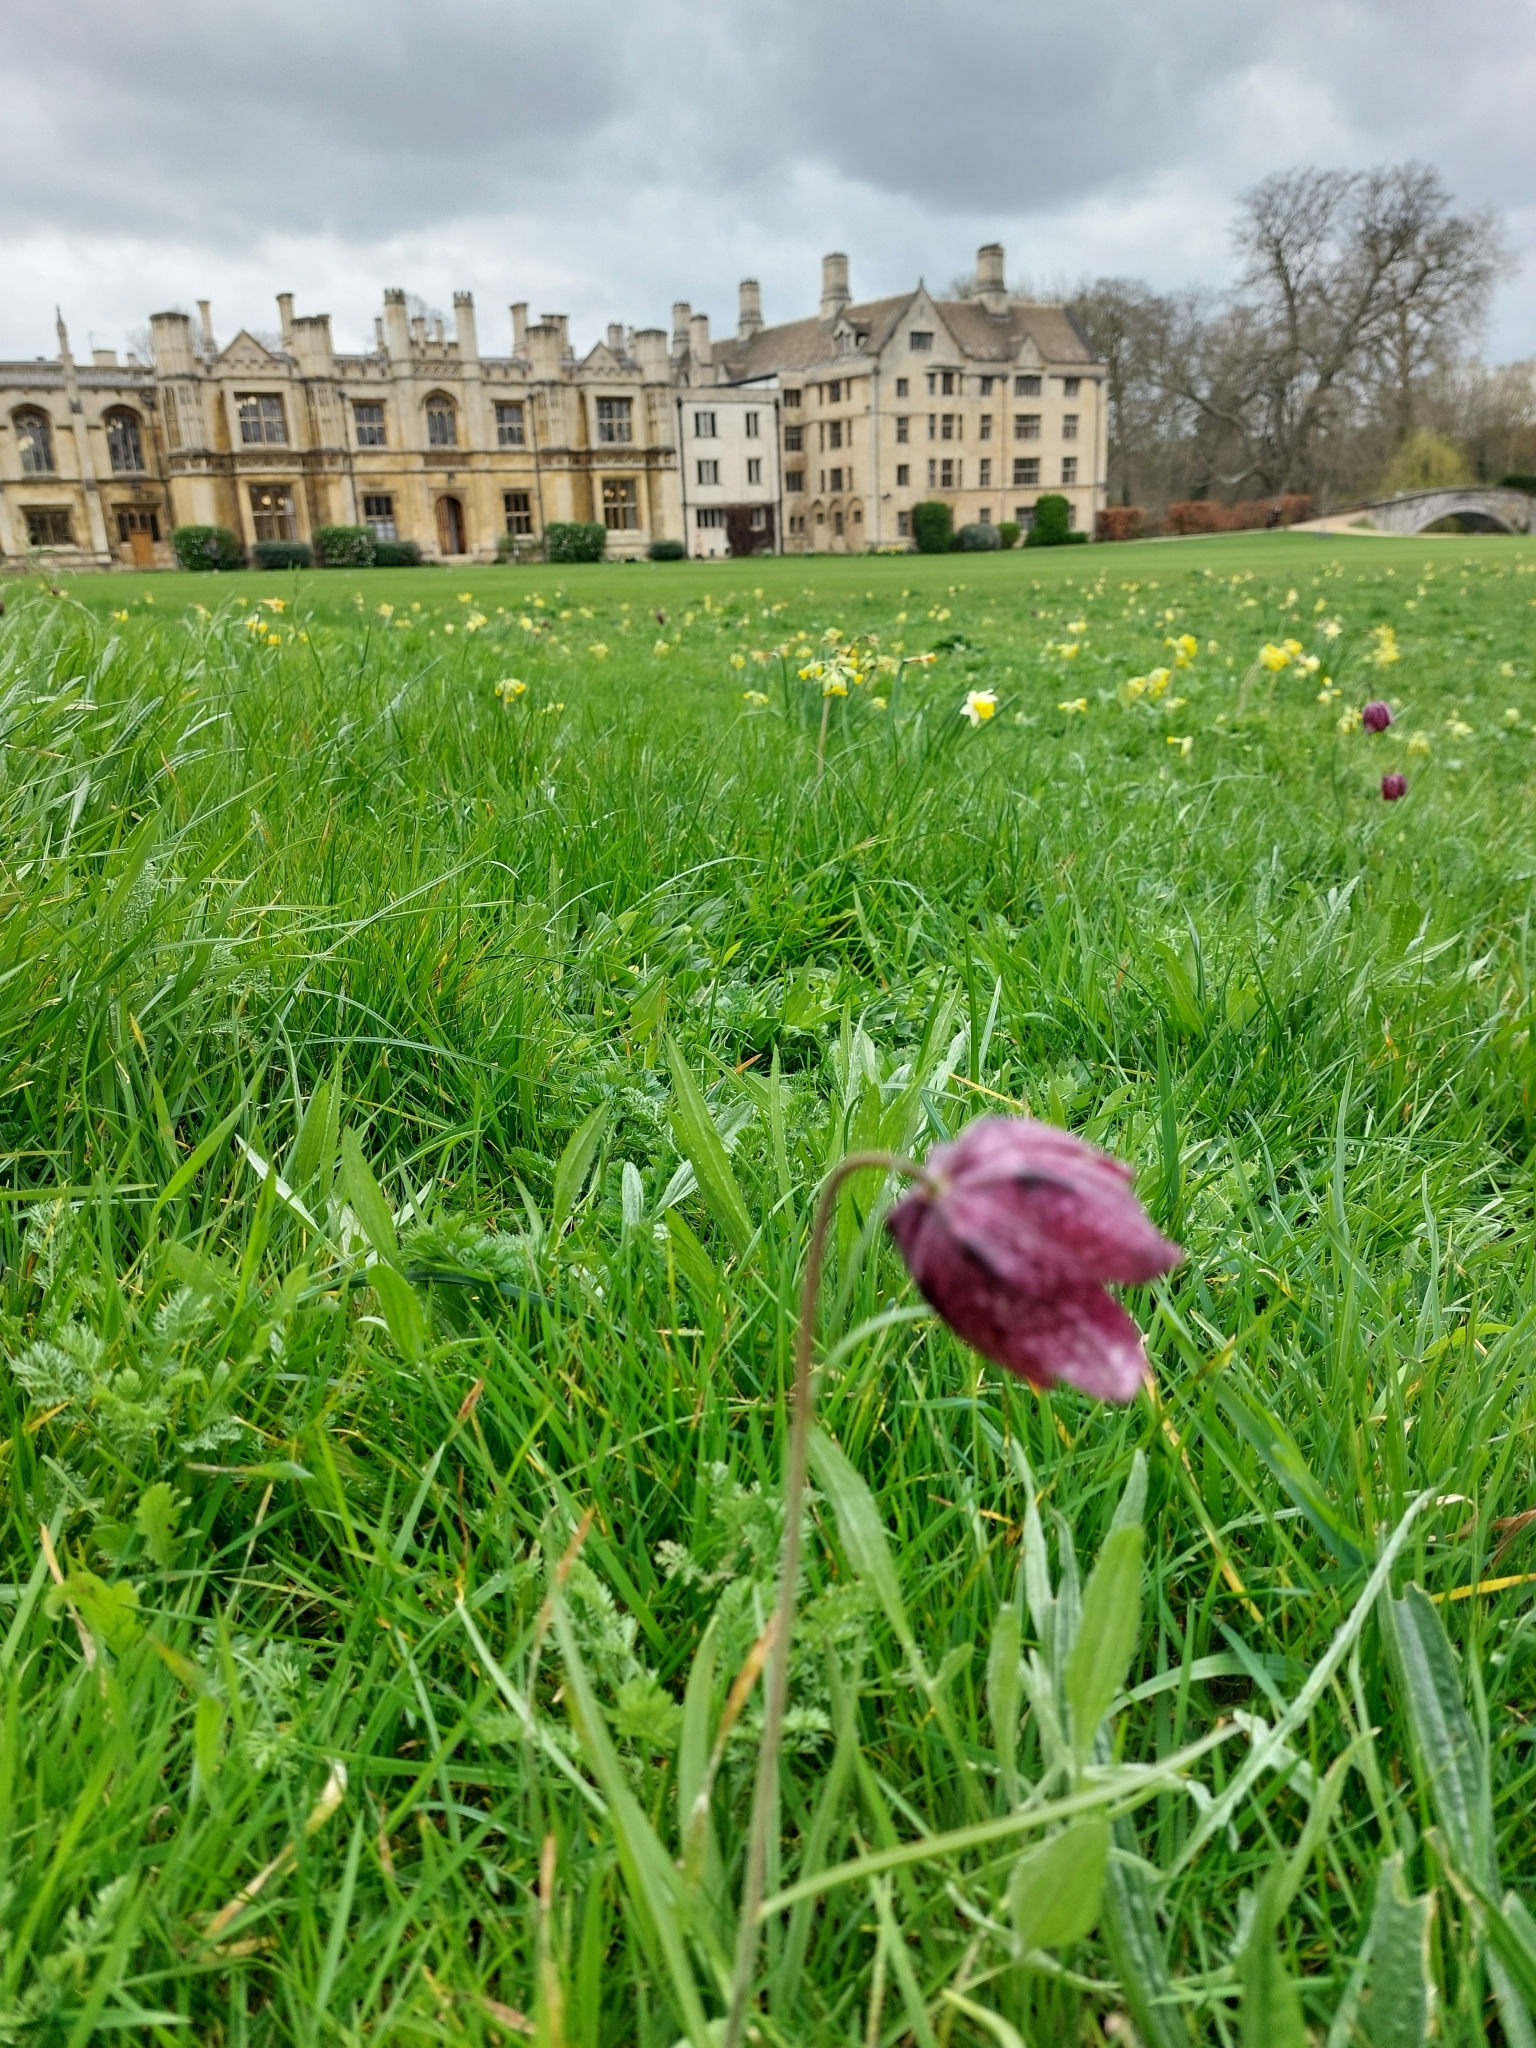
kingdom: Plantae
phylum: Tracheophyta
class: Liliopsida
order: Liliales
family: Liliaceae
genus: Fritillaria
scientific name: Fritillaria meleagris
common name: Fritillary
